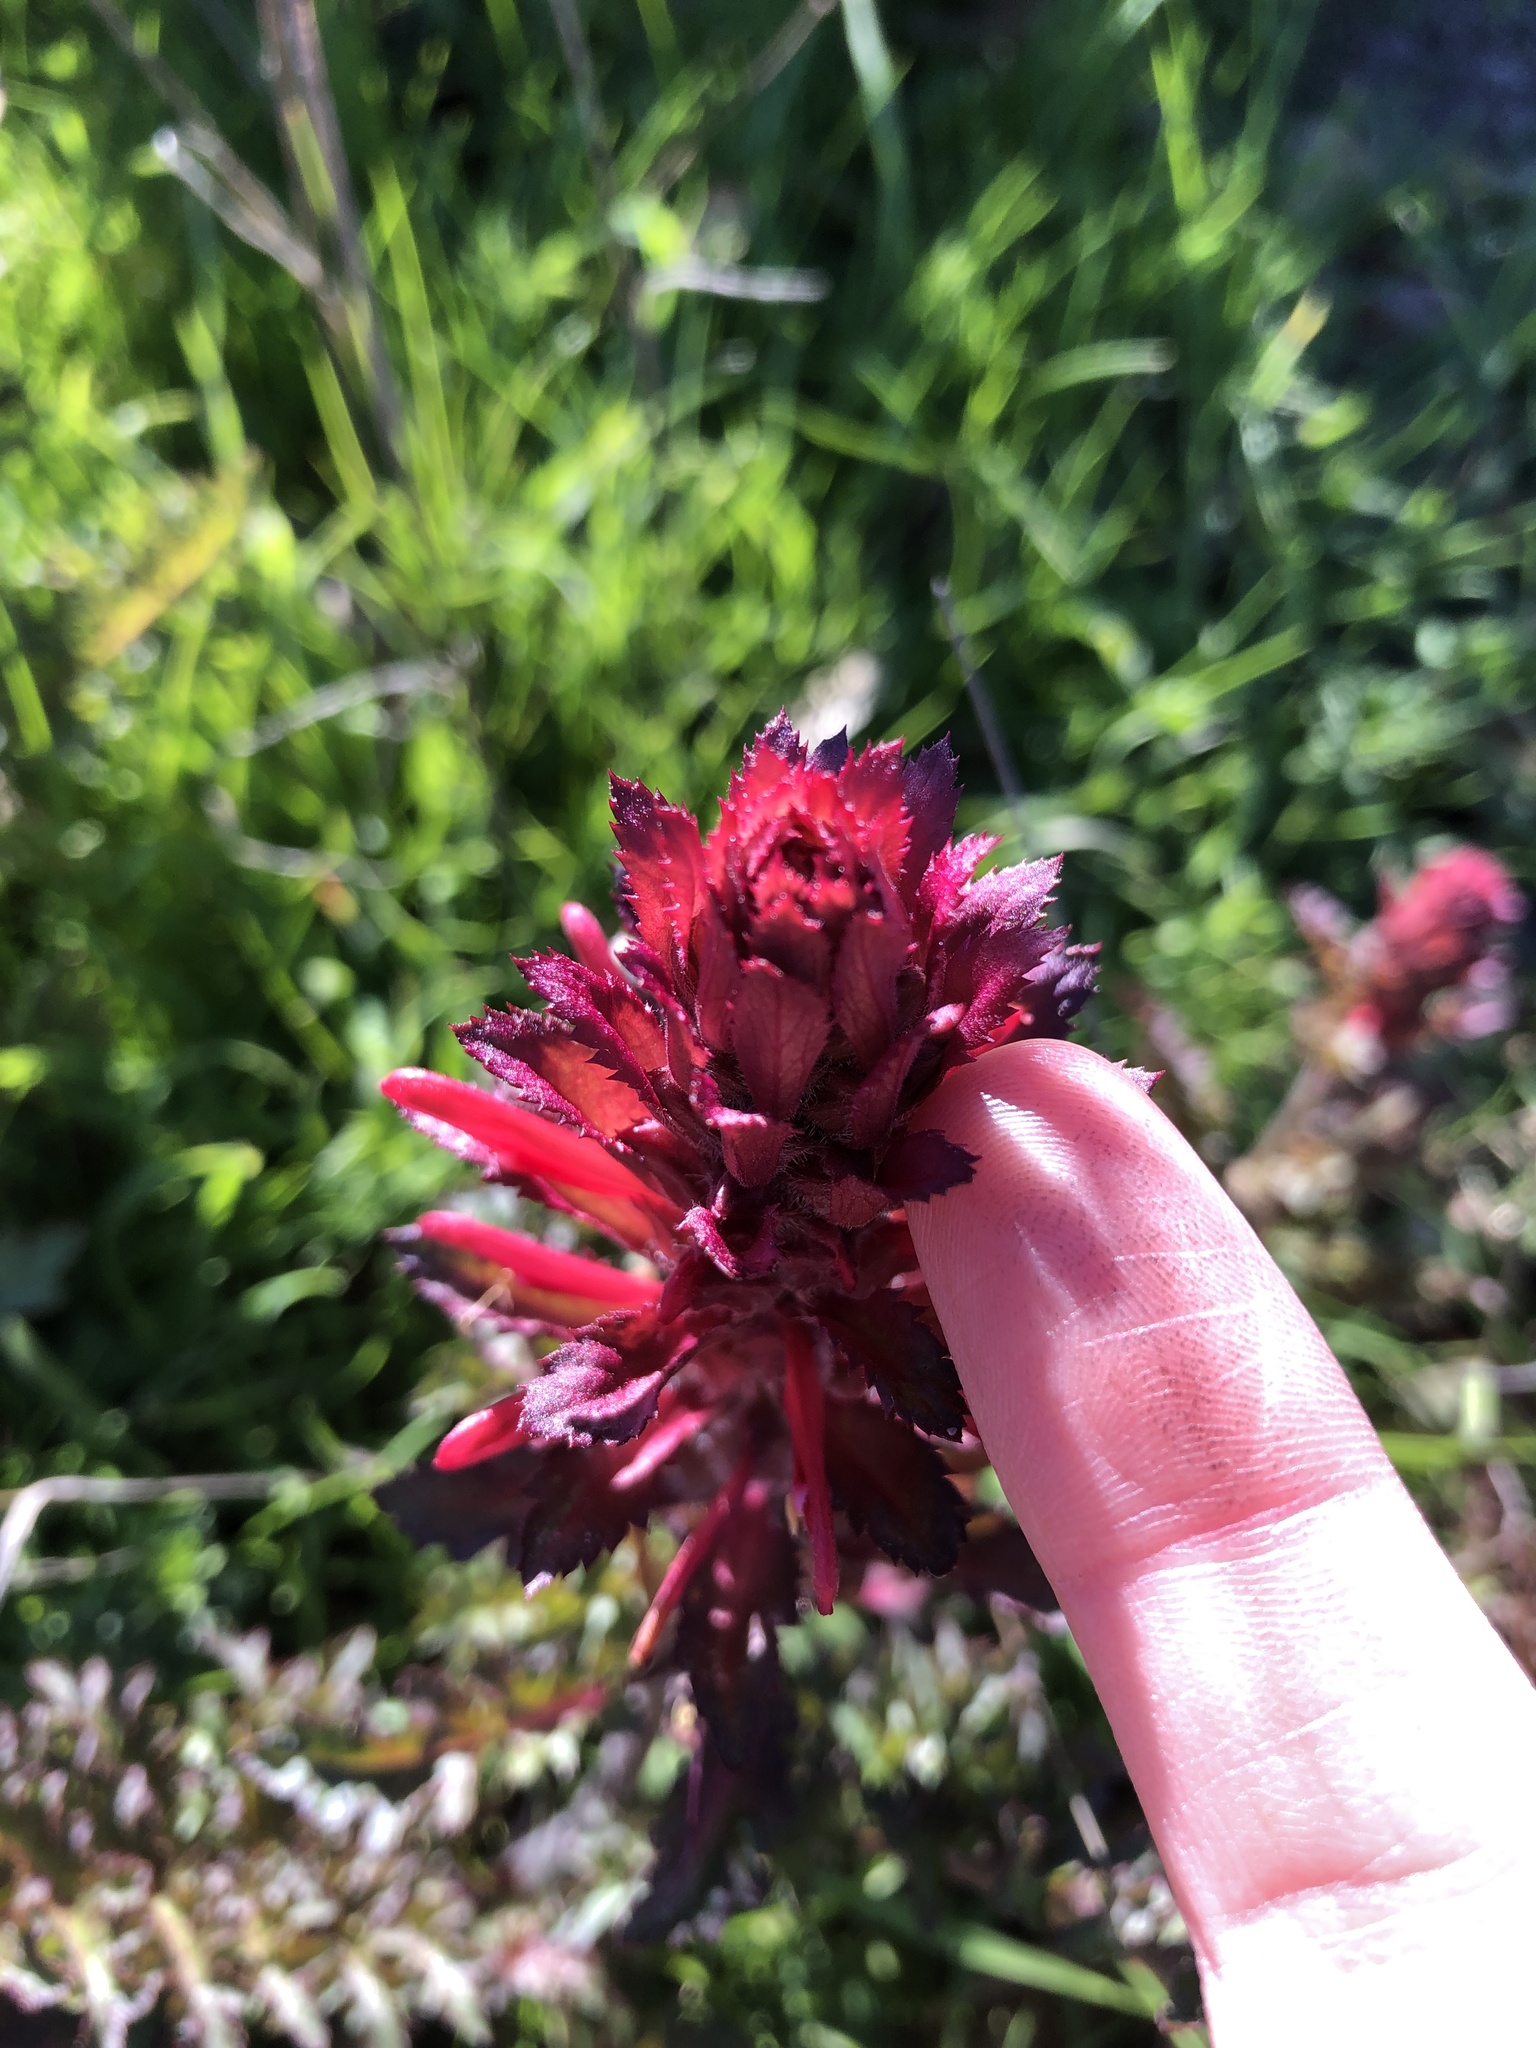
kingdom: Plantae
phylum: Tracheophyta
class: Magnoliopsida
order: Lamiales
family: Orobanchaceae
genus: Pedicularis
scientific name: Pedicularis densiflora
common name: Indian warrior
